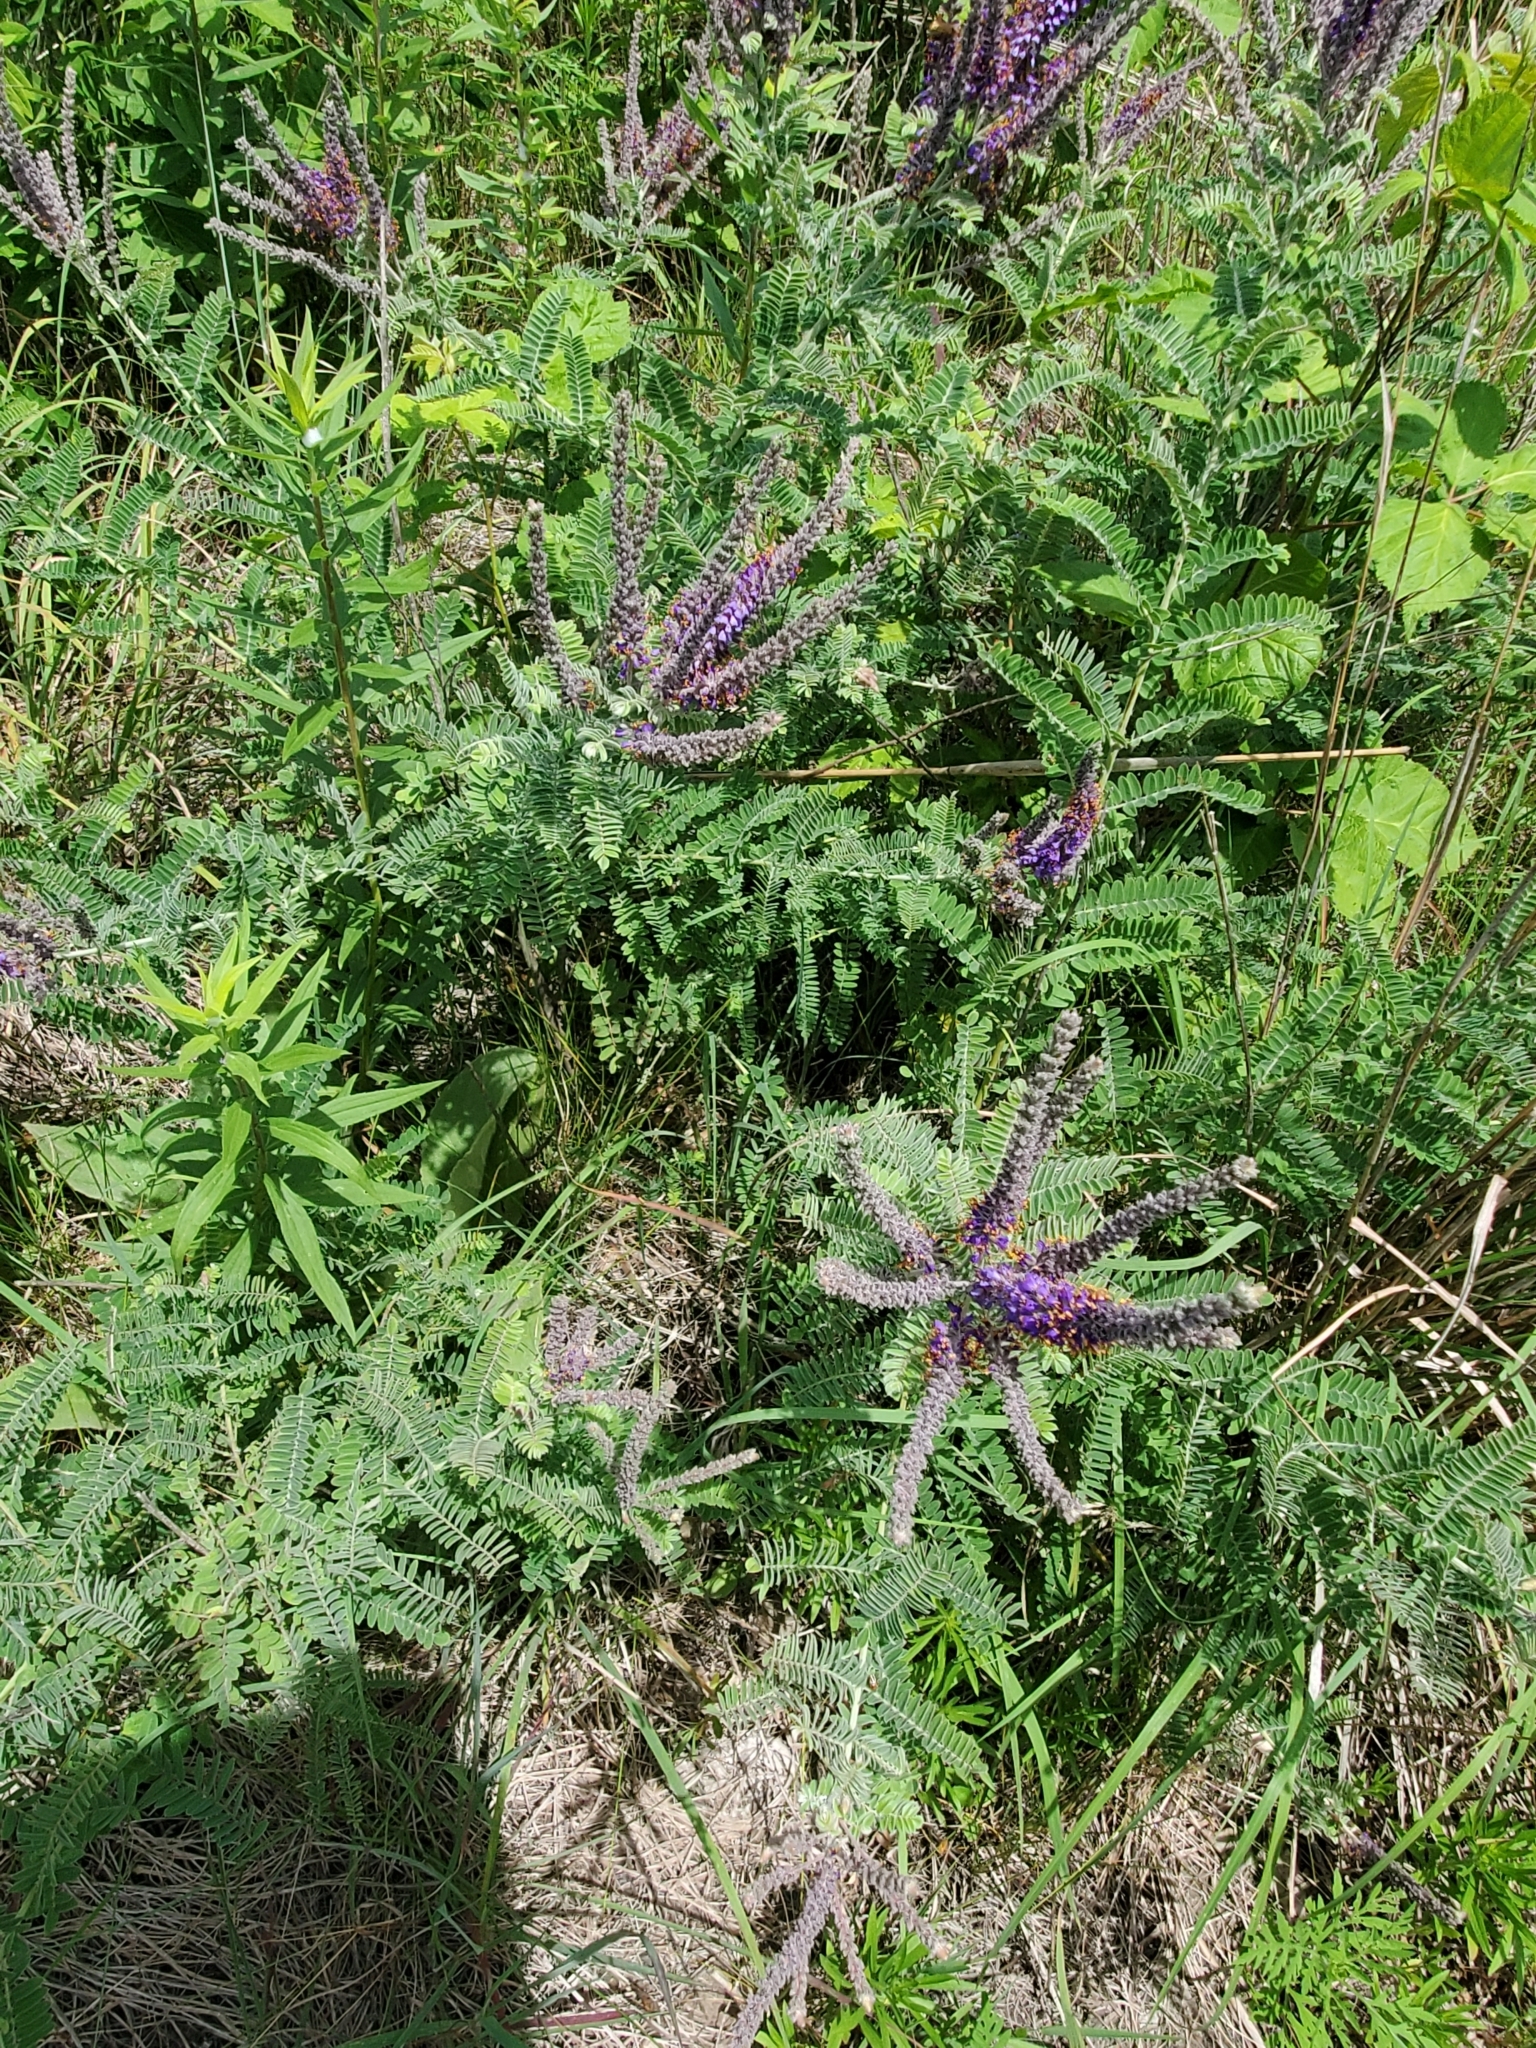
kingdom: Plantae
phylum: Tracheophyta
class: Magnoliopsida
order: Fabales
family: Fabaceae
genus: Amorpha
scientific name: Amorpha canescens
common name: Leadplant
